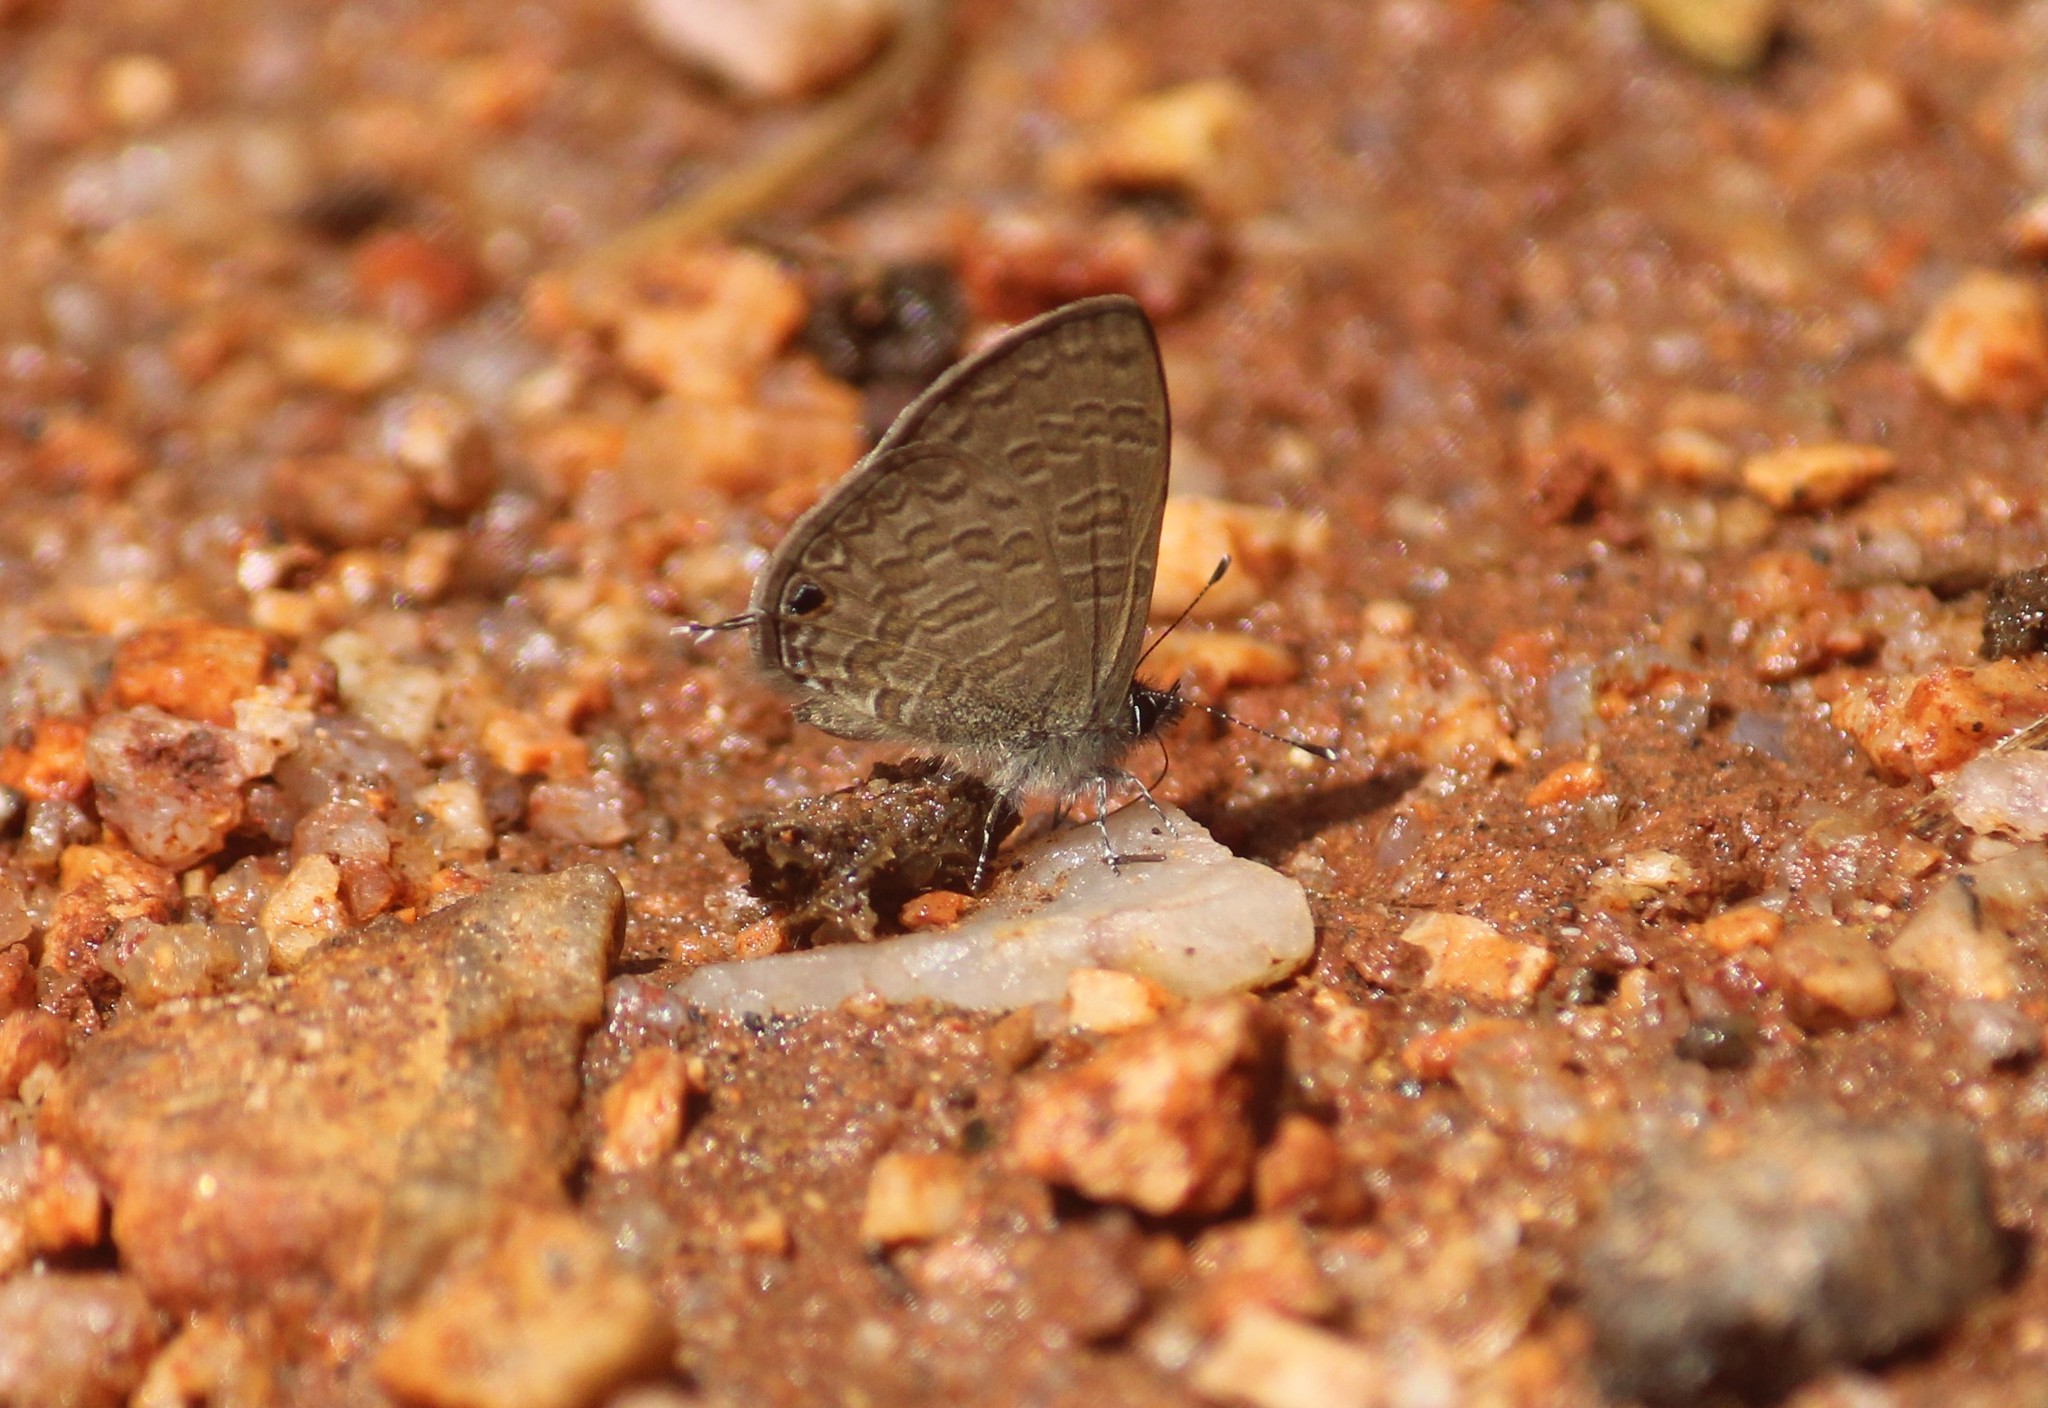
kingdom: Animalia
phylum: Arthropoda
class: Insecta
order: Lepidoptera
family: Lycaenidae
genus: Prosotas
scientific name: Prosotas nora
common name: Common line blue
